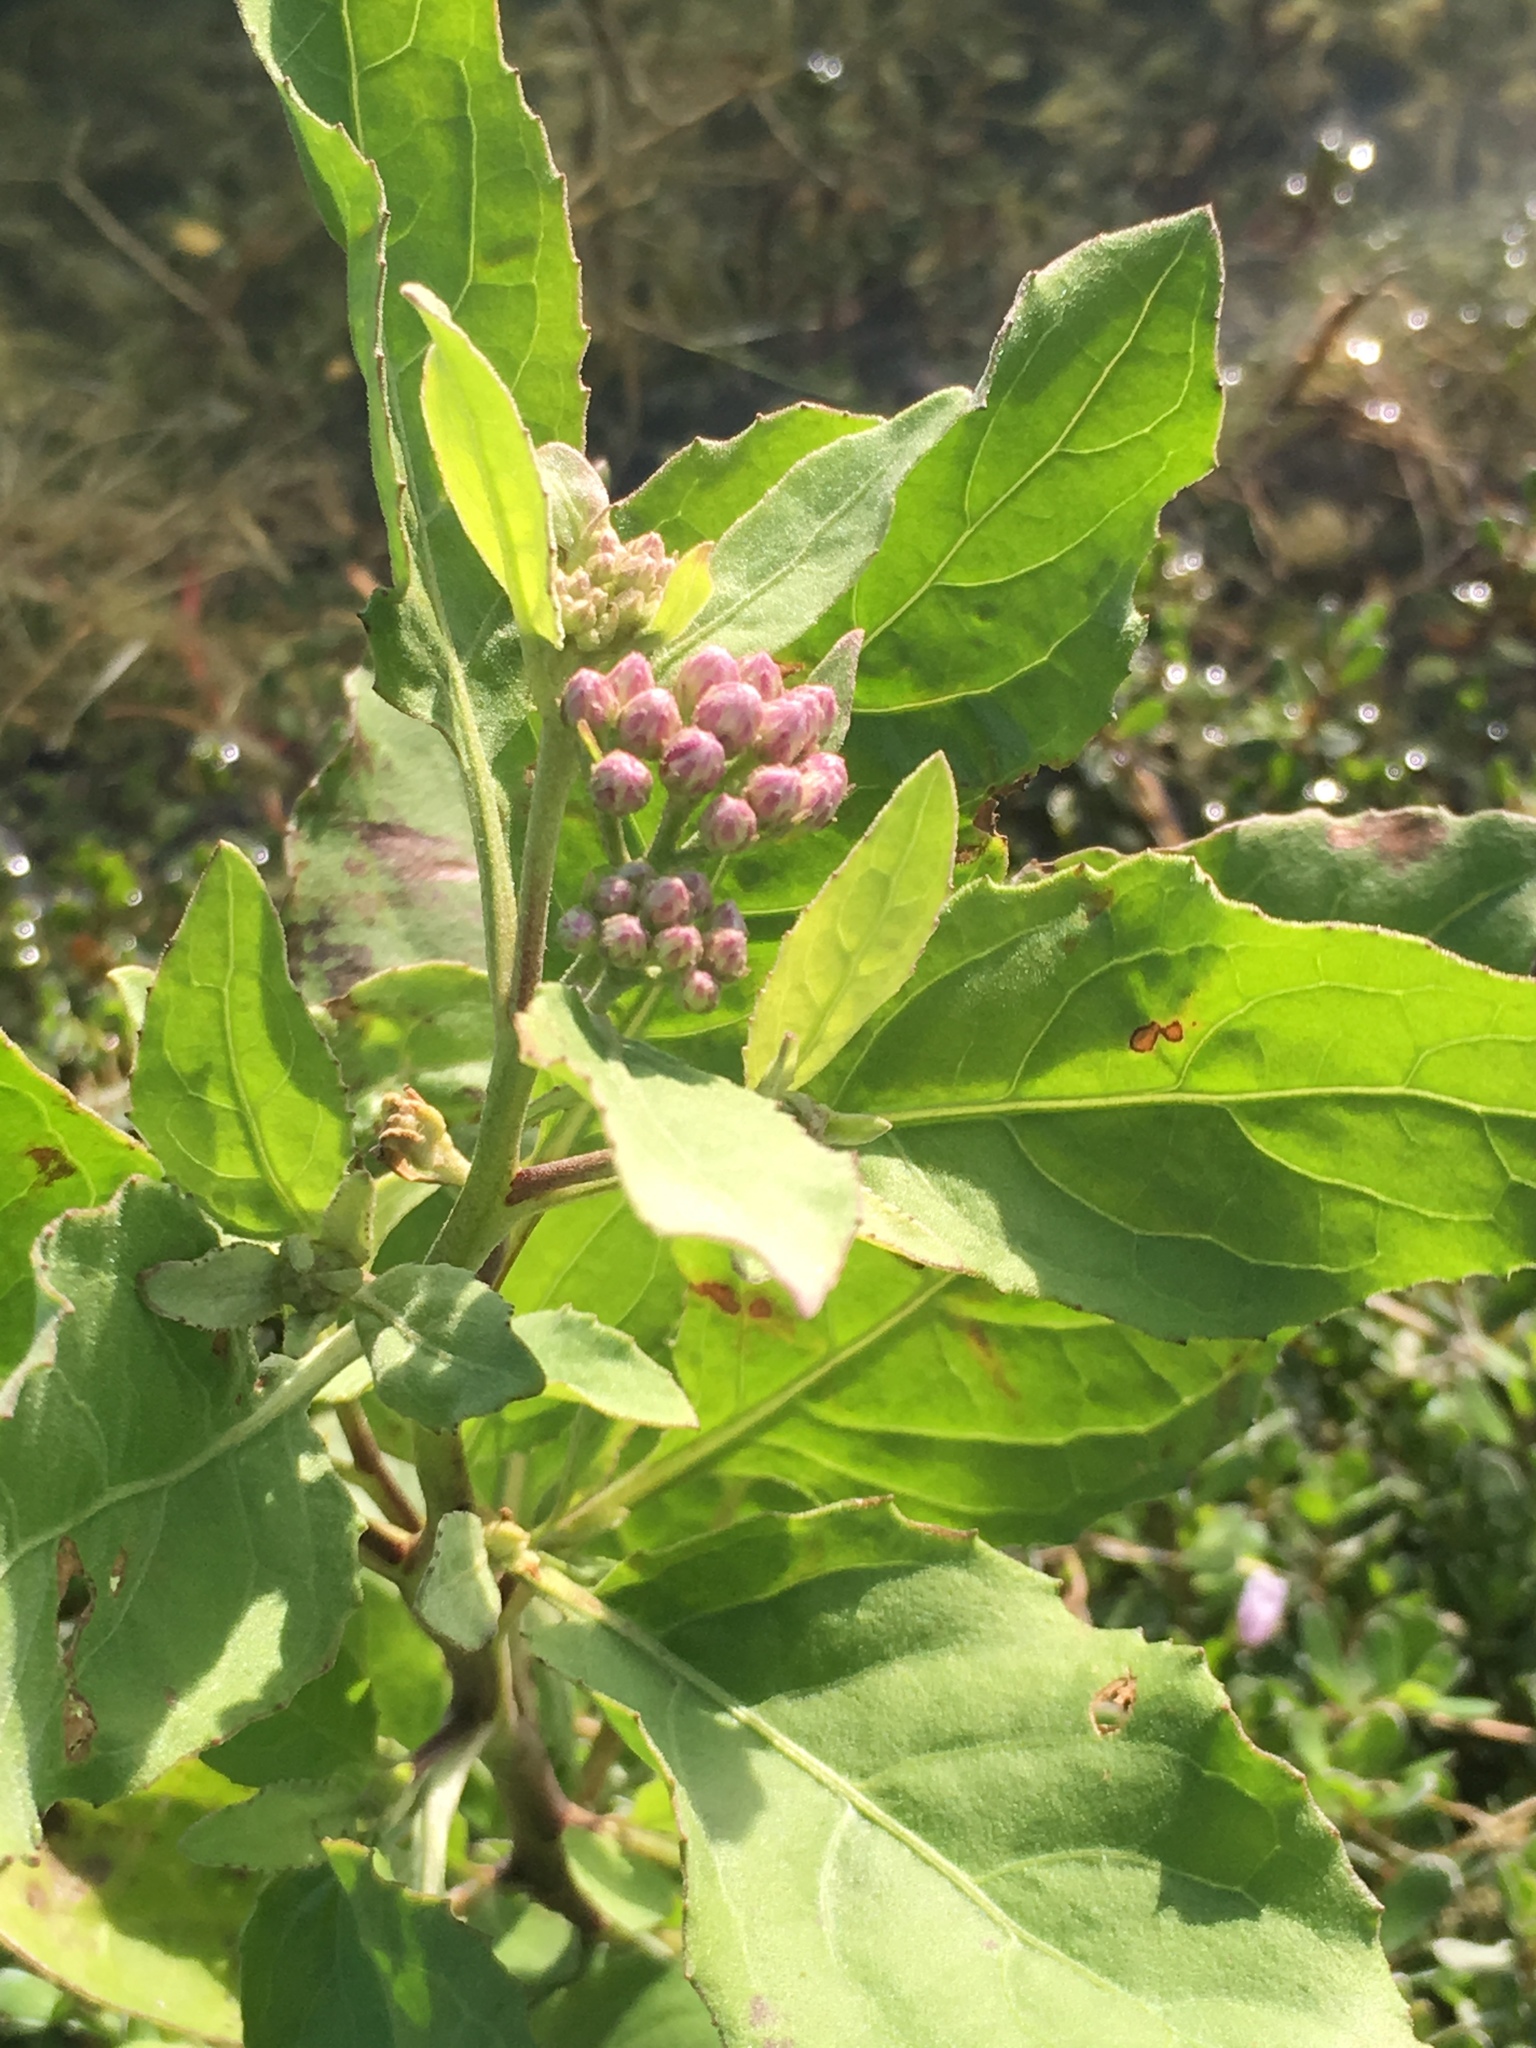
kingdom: Plantae
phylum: Tracheophyta
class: Magnoliopsida
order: Asterales
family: Asteraceae
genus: Pluchea
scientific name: Pluchea odorata
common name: Saltmarsh fleabane
